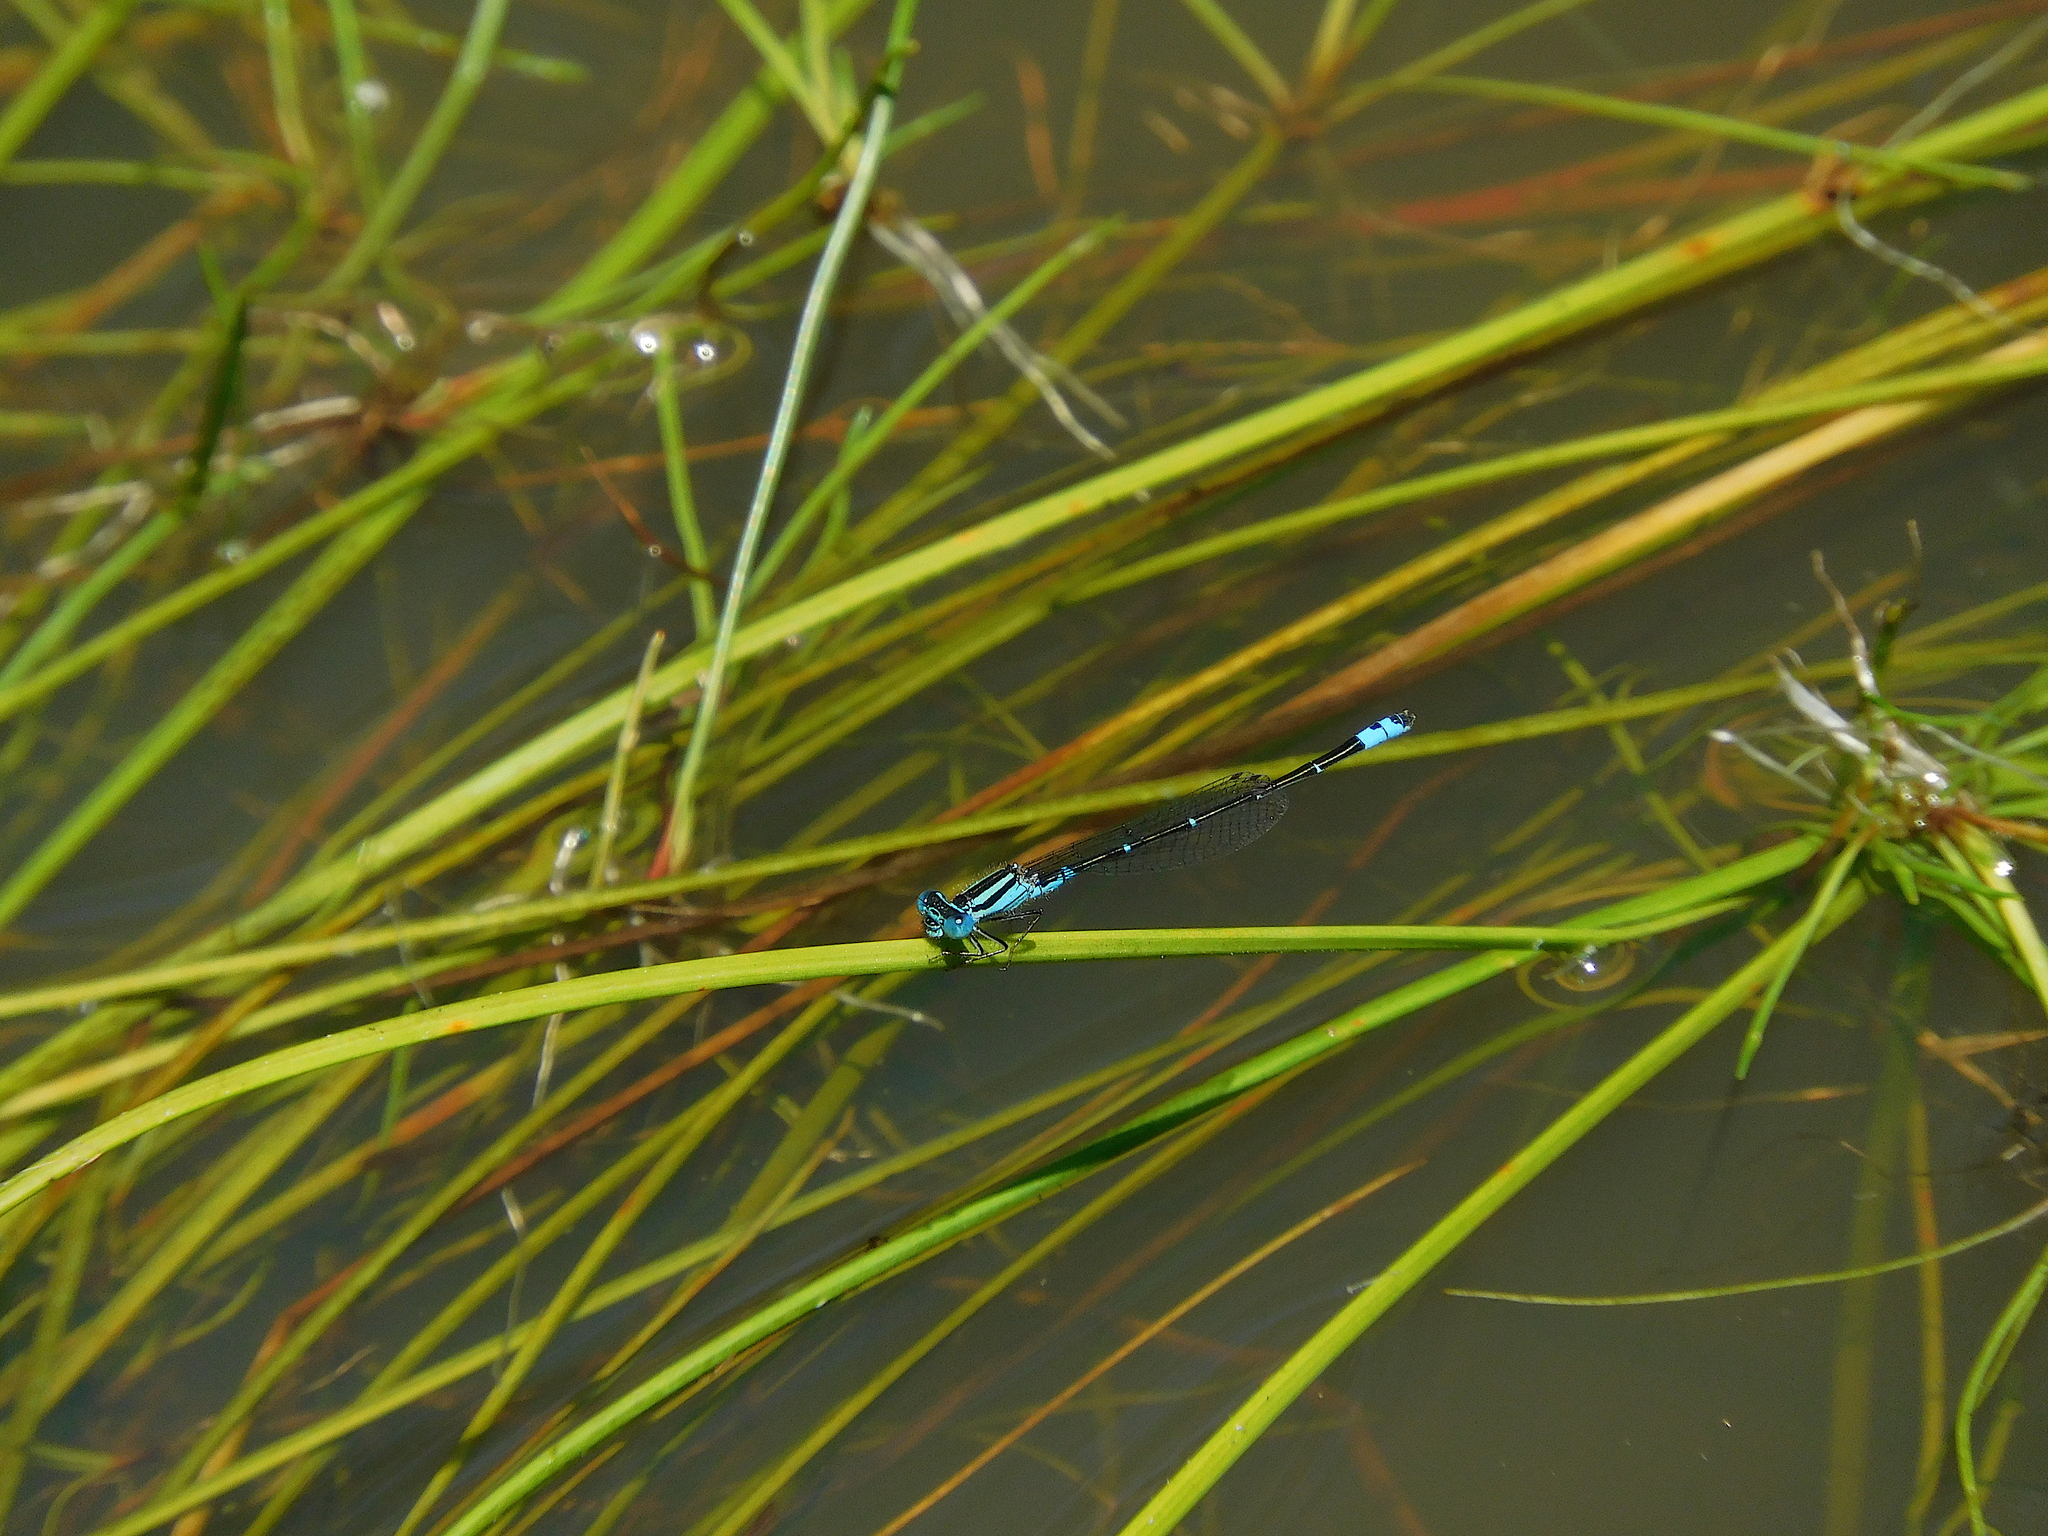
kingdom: Animalia
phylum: Arthropoda
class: Insecta
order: Odonata
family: Coenagrionidae
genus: Austroagrion
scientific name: Austroagrion watsoni
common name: Eastern billabongfly
